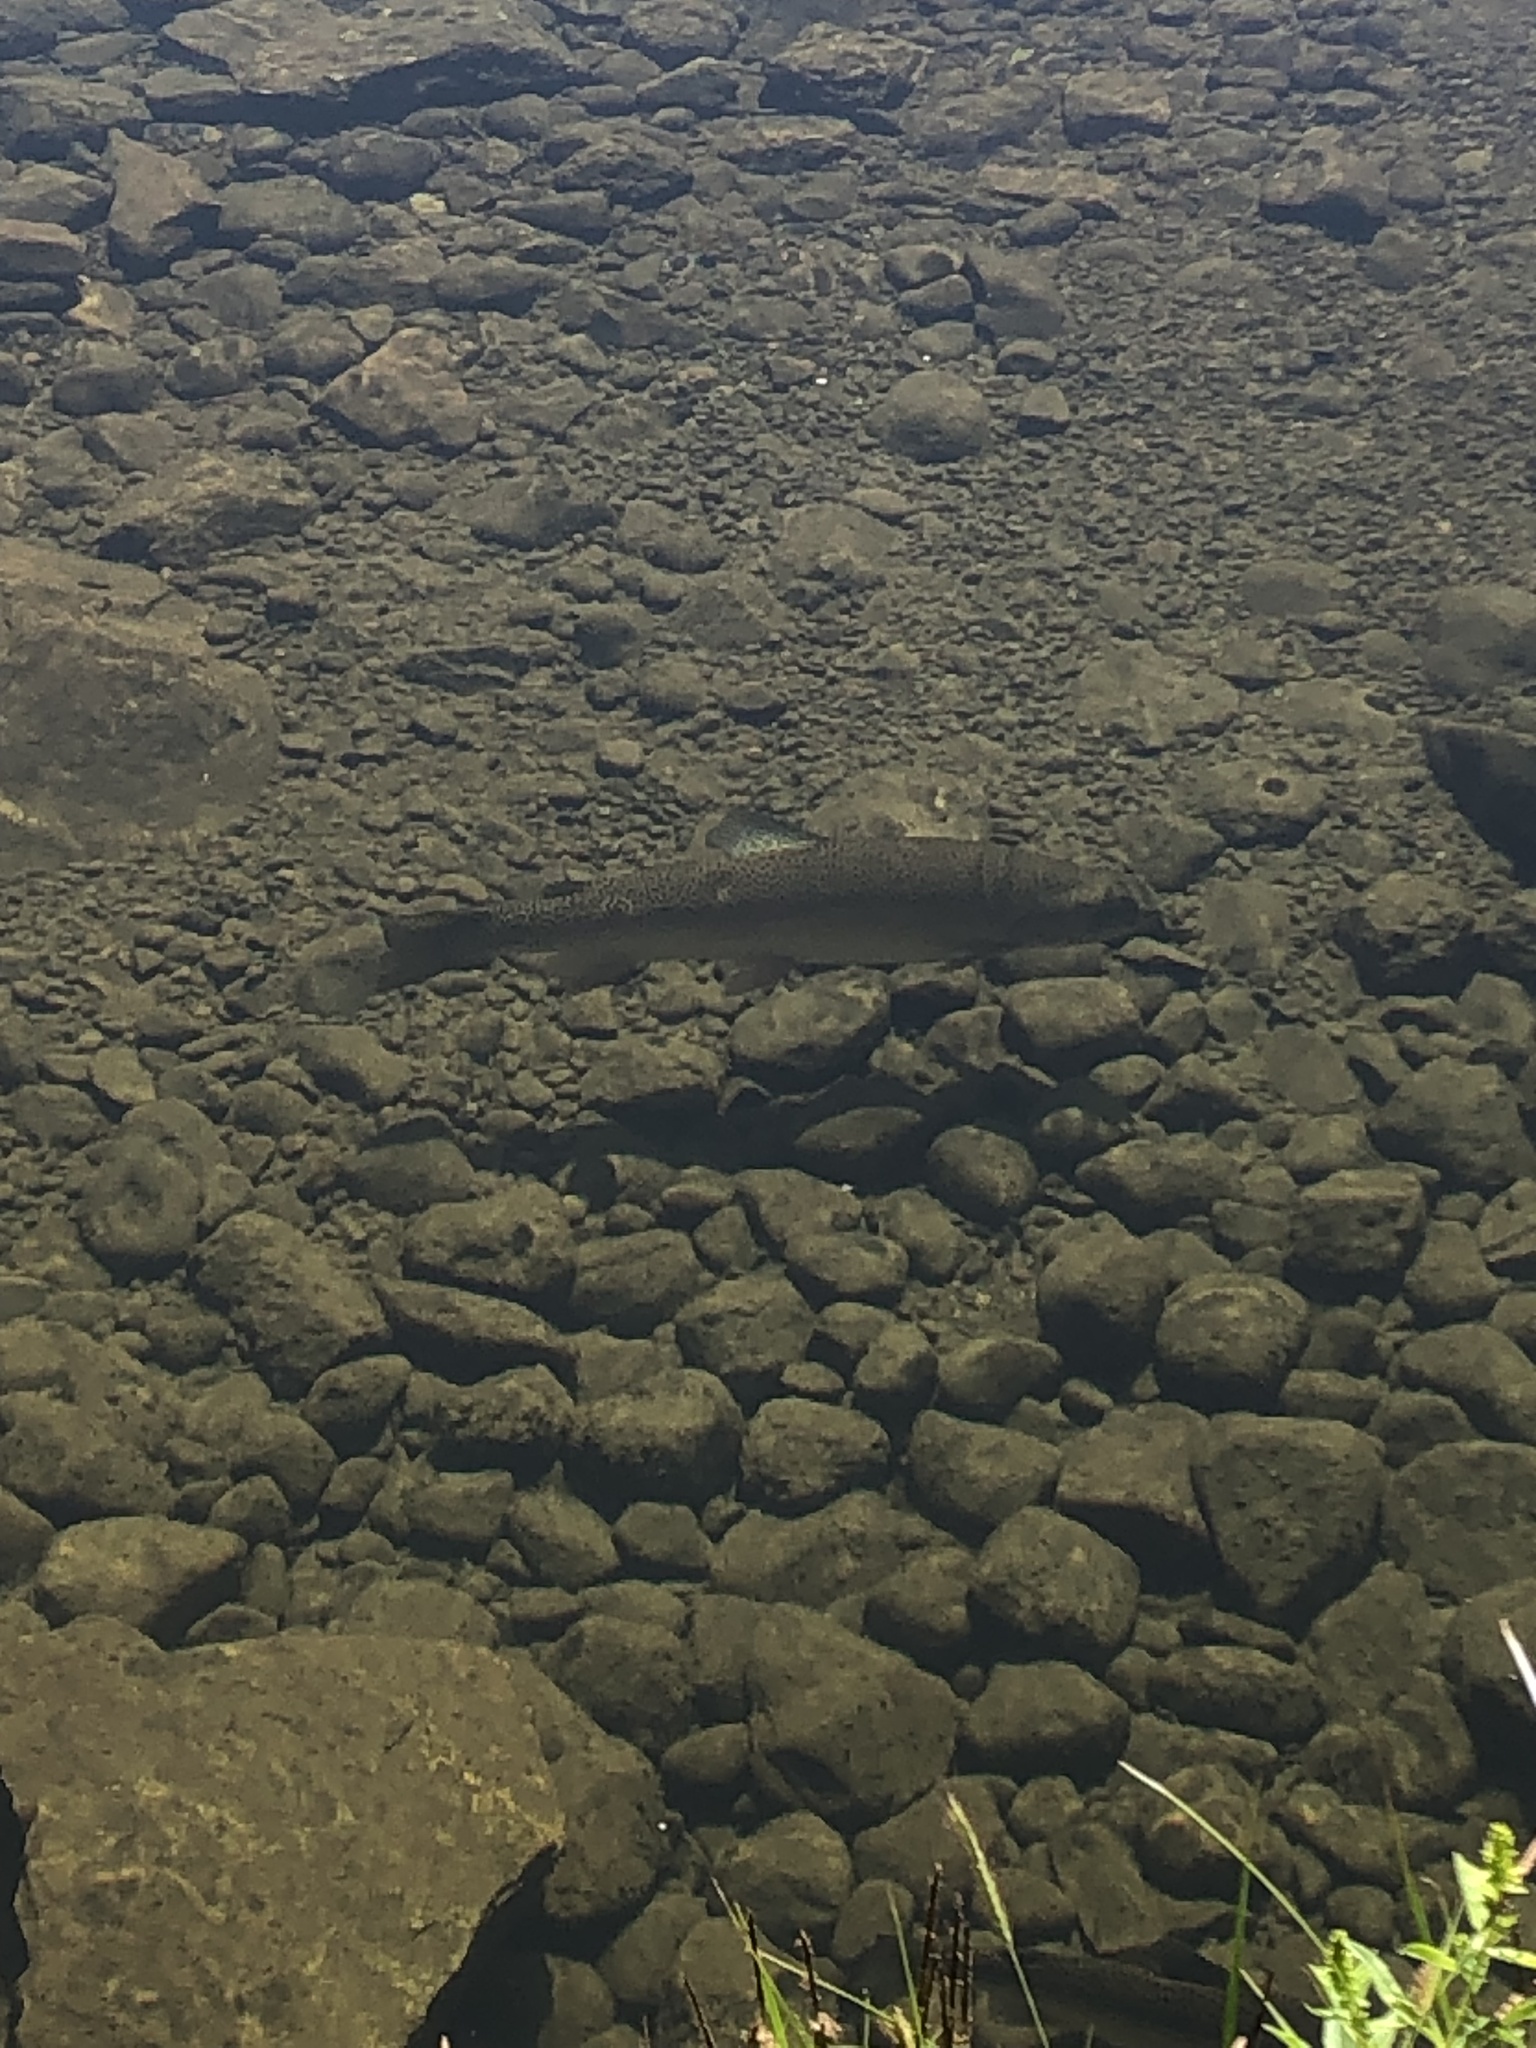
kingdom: Animalia
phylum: Chordata
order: Salmoniformes
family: Salmonidae
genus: Oncorhynchus
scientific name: Oncorhynchus mykiss
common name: Rainbow trout
